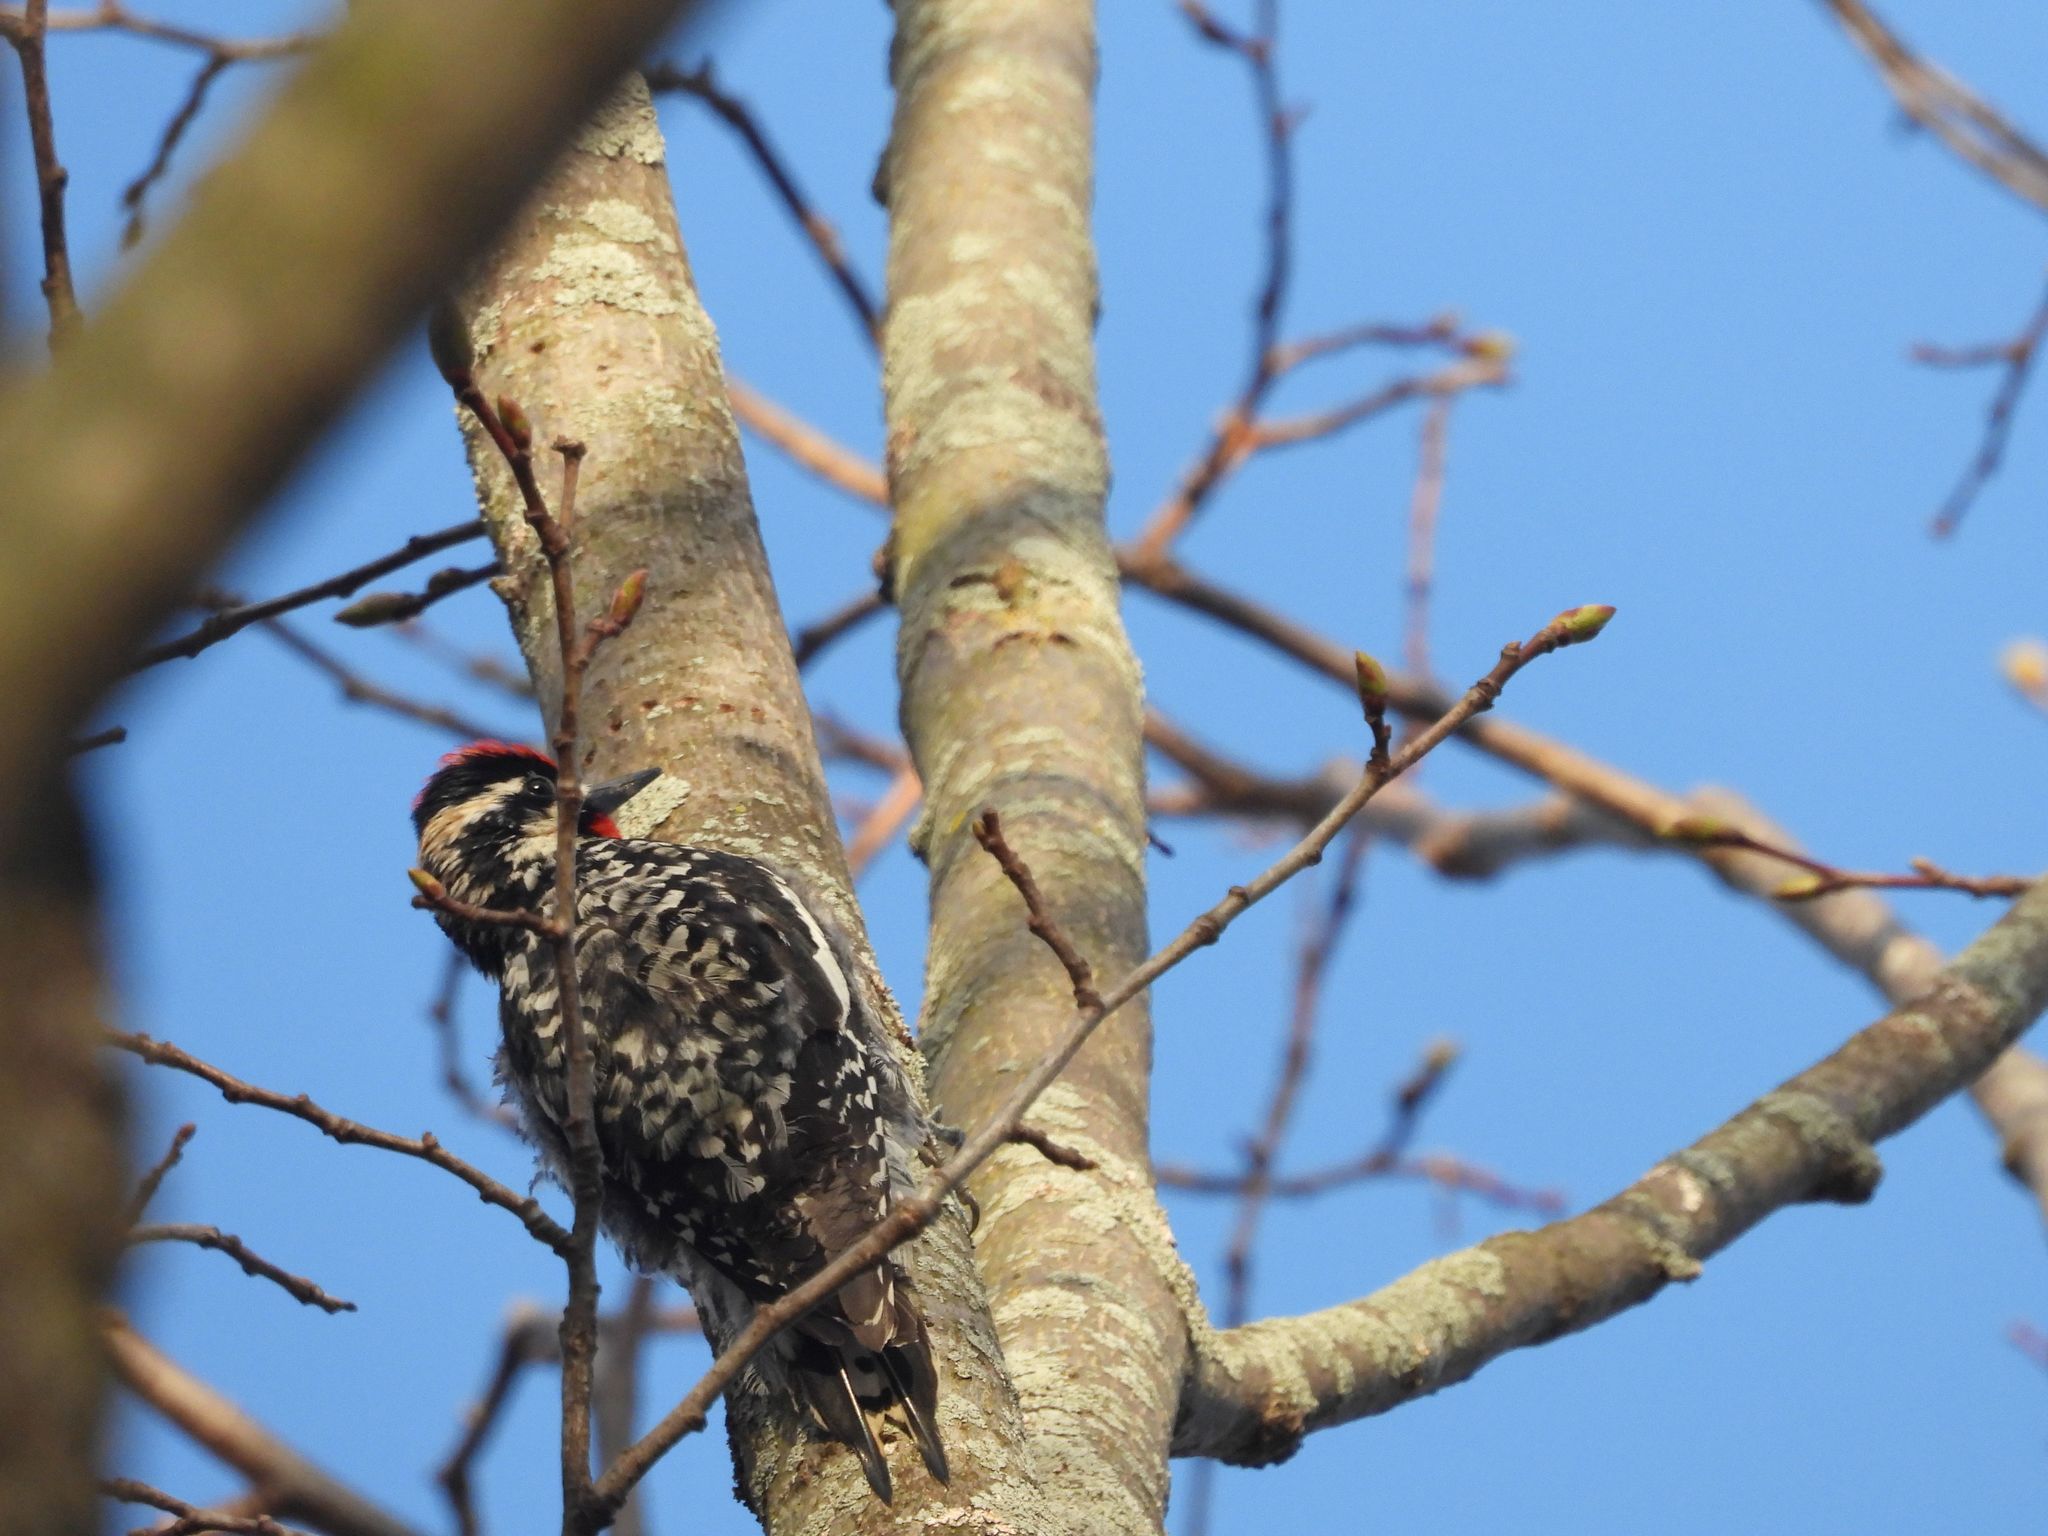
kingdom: Animalia
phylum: Chordata
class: Aves
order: Piciformes
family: Picidae
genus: Sphyrapicus
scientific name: Sphyrapicus varius
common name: Yellow-bellied sapsucker
